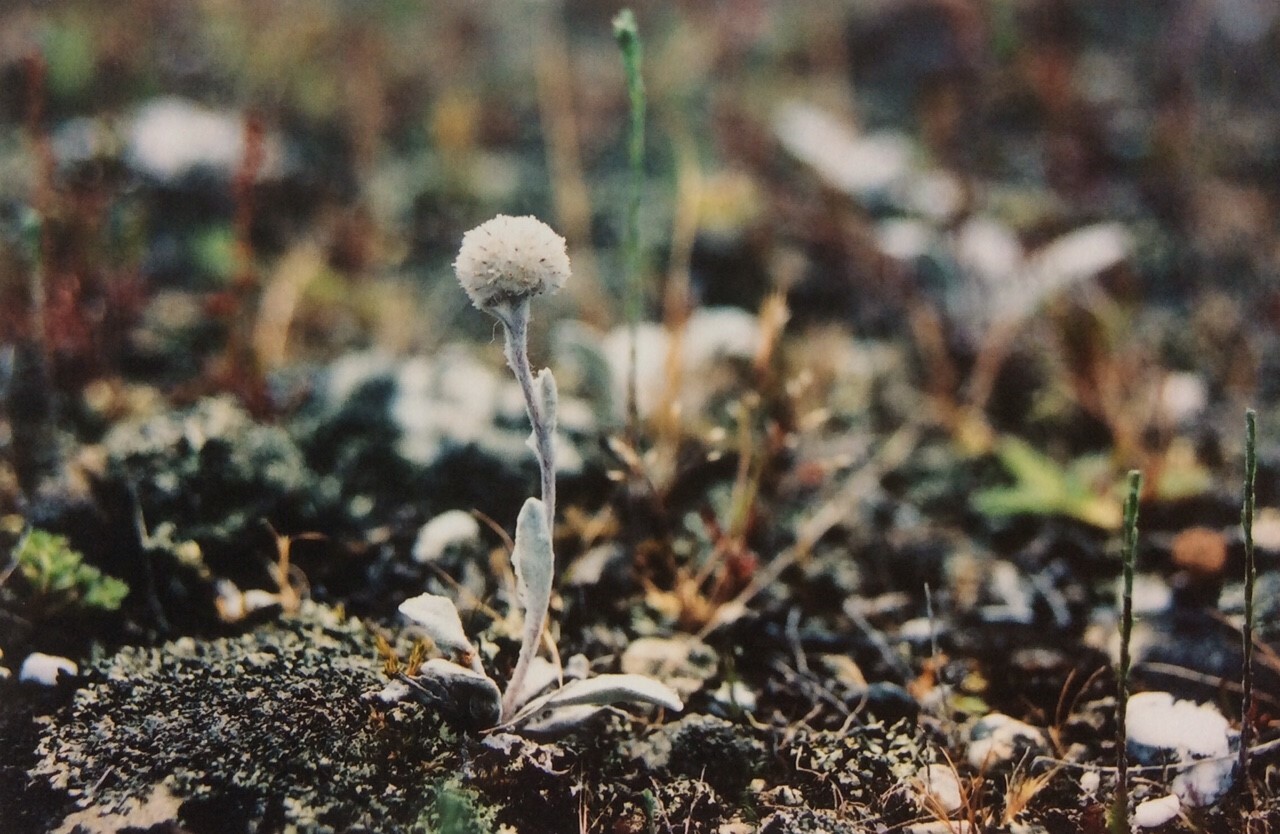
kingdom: Plantae
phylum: Tracheophyta
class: Magnoliopsida
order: Asterales
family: Asteraceae
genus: Craspedia
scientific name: Craspedia
